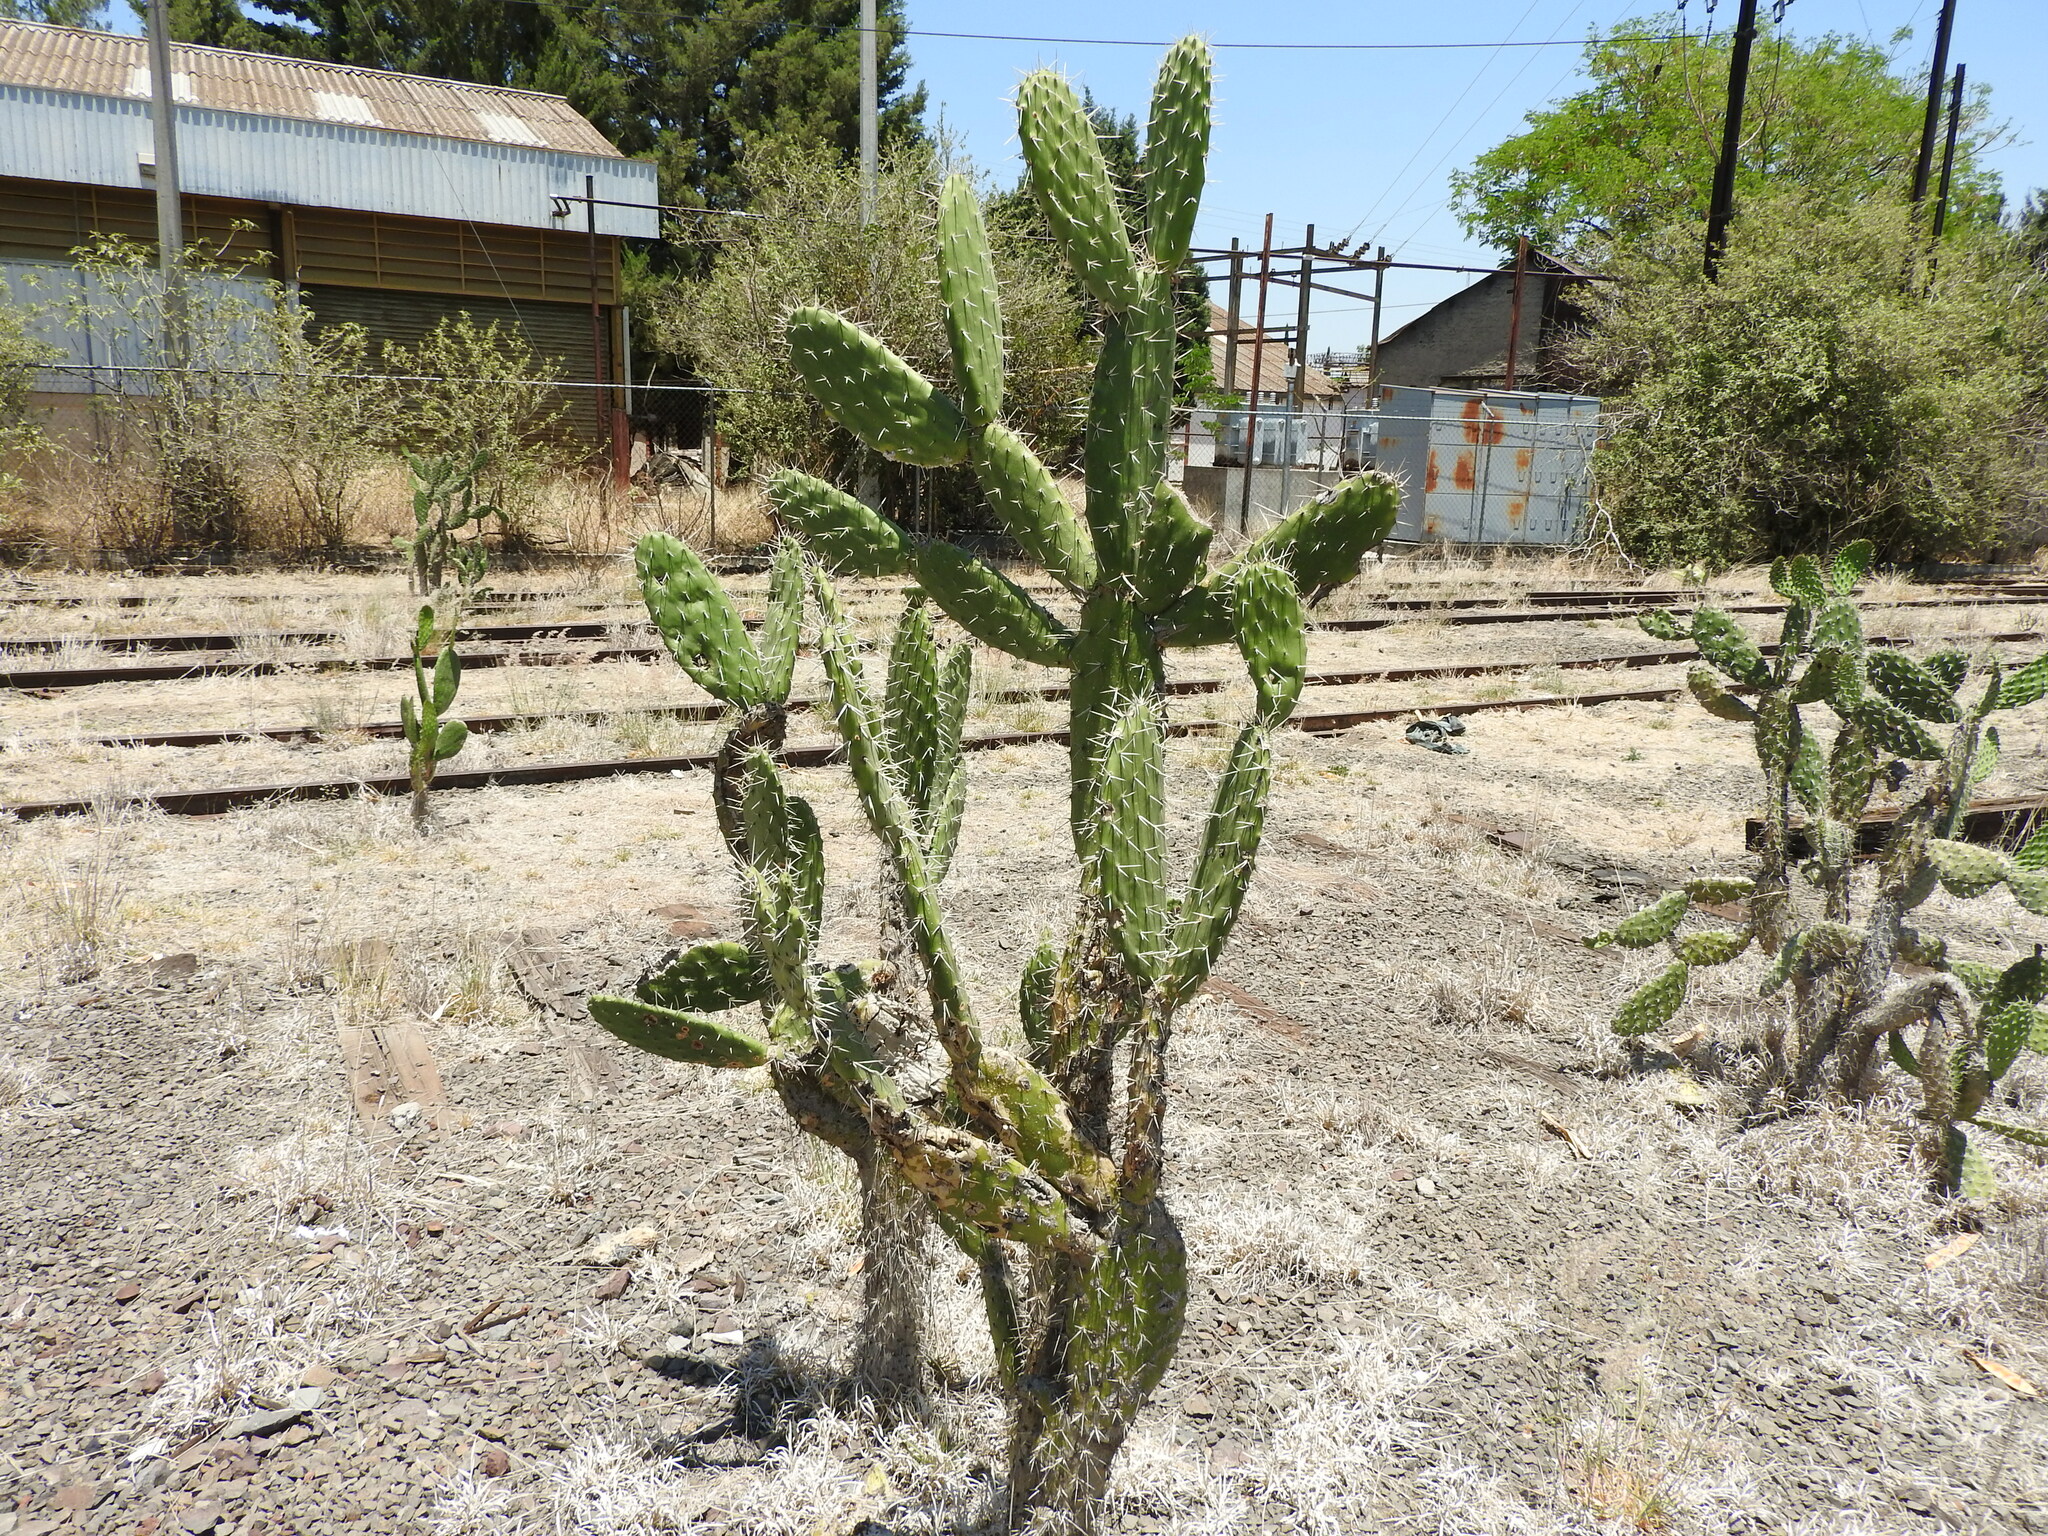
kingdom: Plantae
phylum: Tracheophyta
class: Magnoliopsida
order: Caryophyllales
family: Cactaceae
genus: Opuntia
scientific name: Opuntia jaliscana
